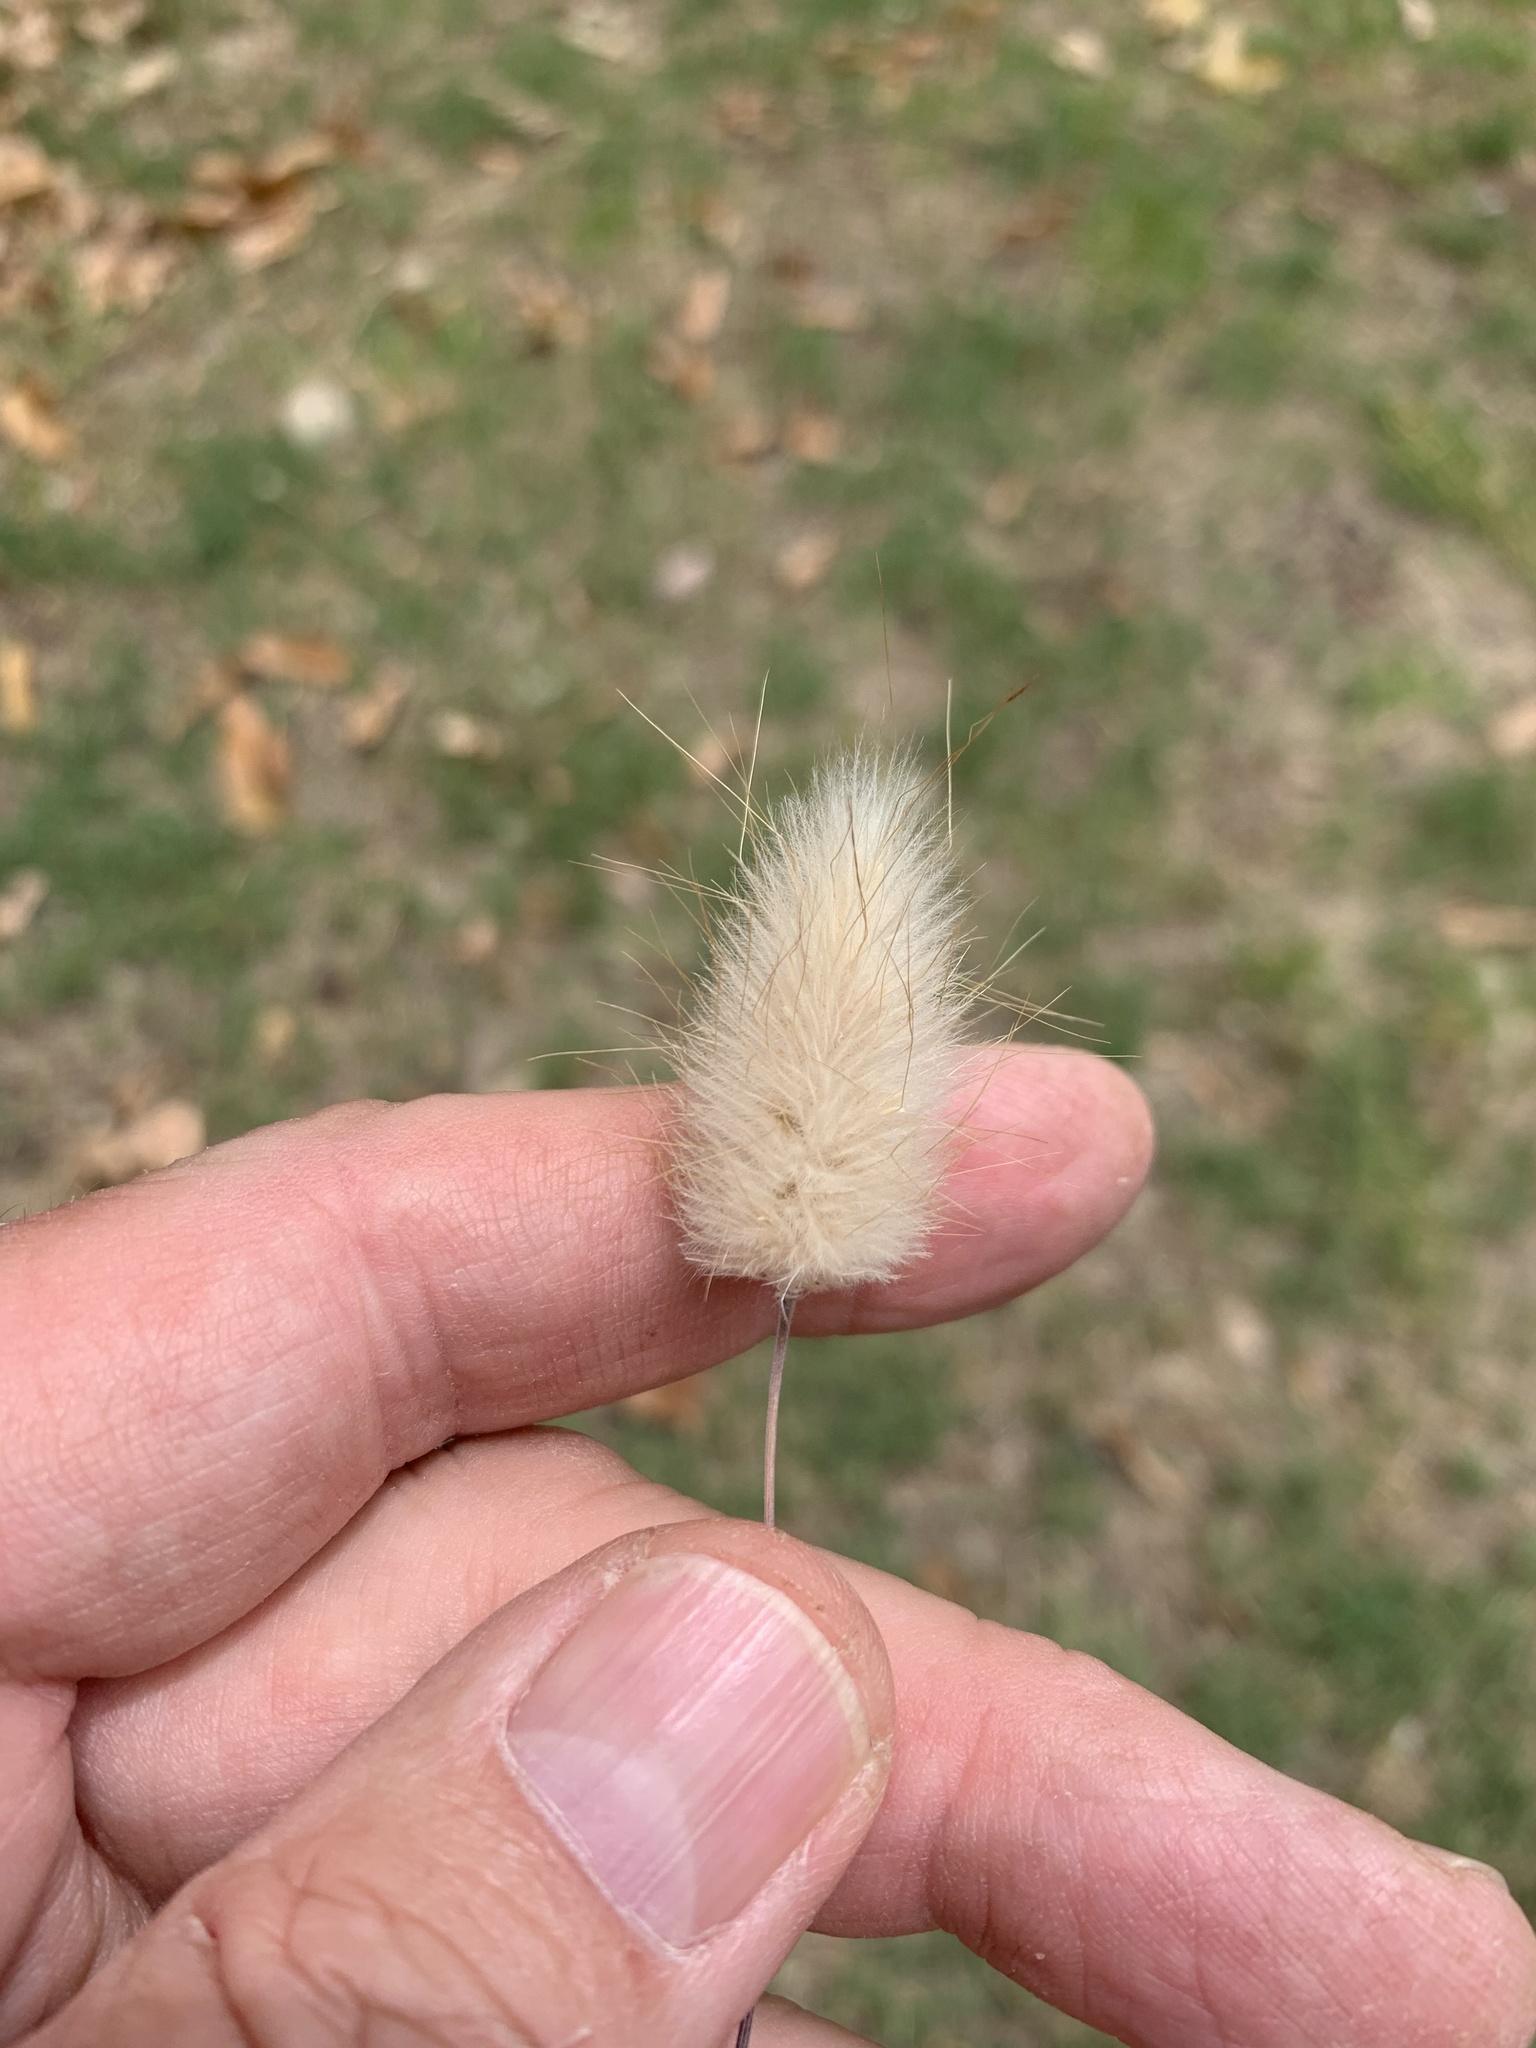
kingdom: Plantae
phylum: Tracheophyta
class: Liliopsida
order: Poales
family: Poaceae
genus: Lagurus
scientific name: Lagurus ovatus
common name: Hare's-tail
